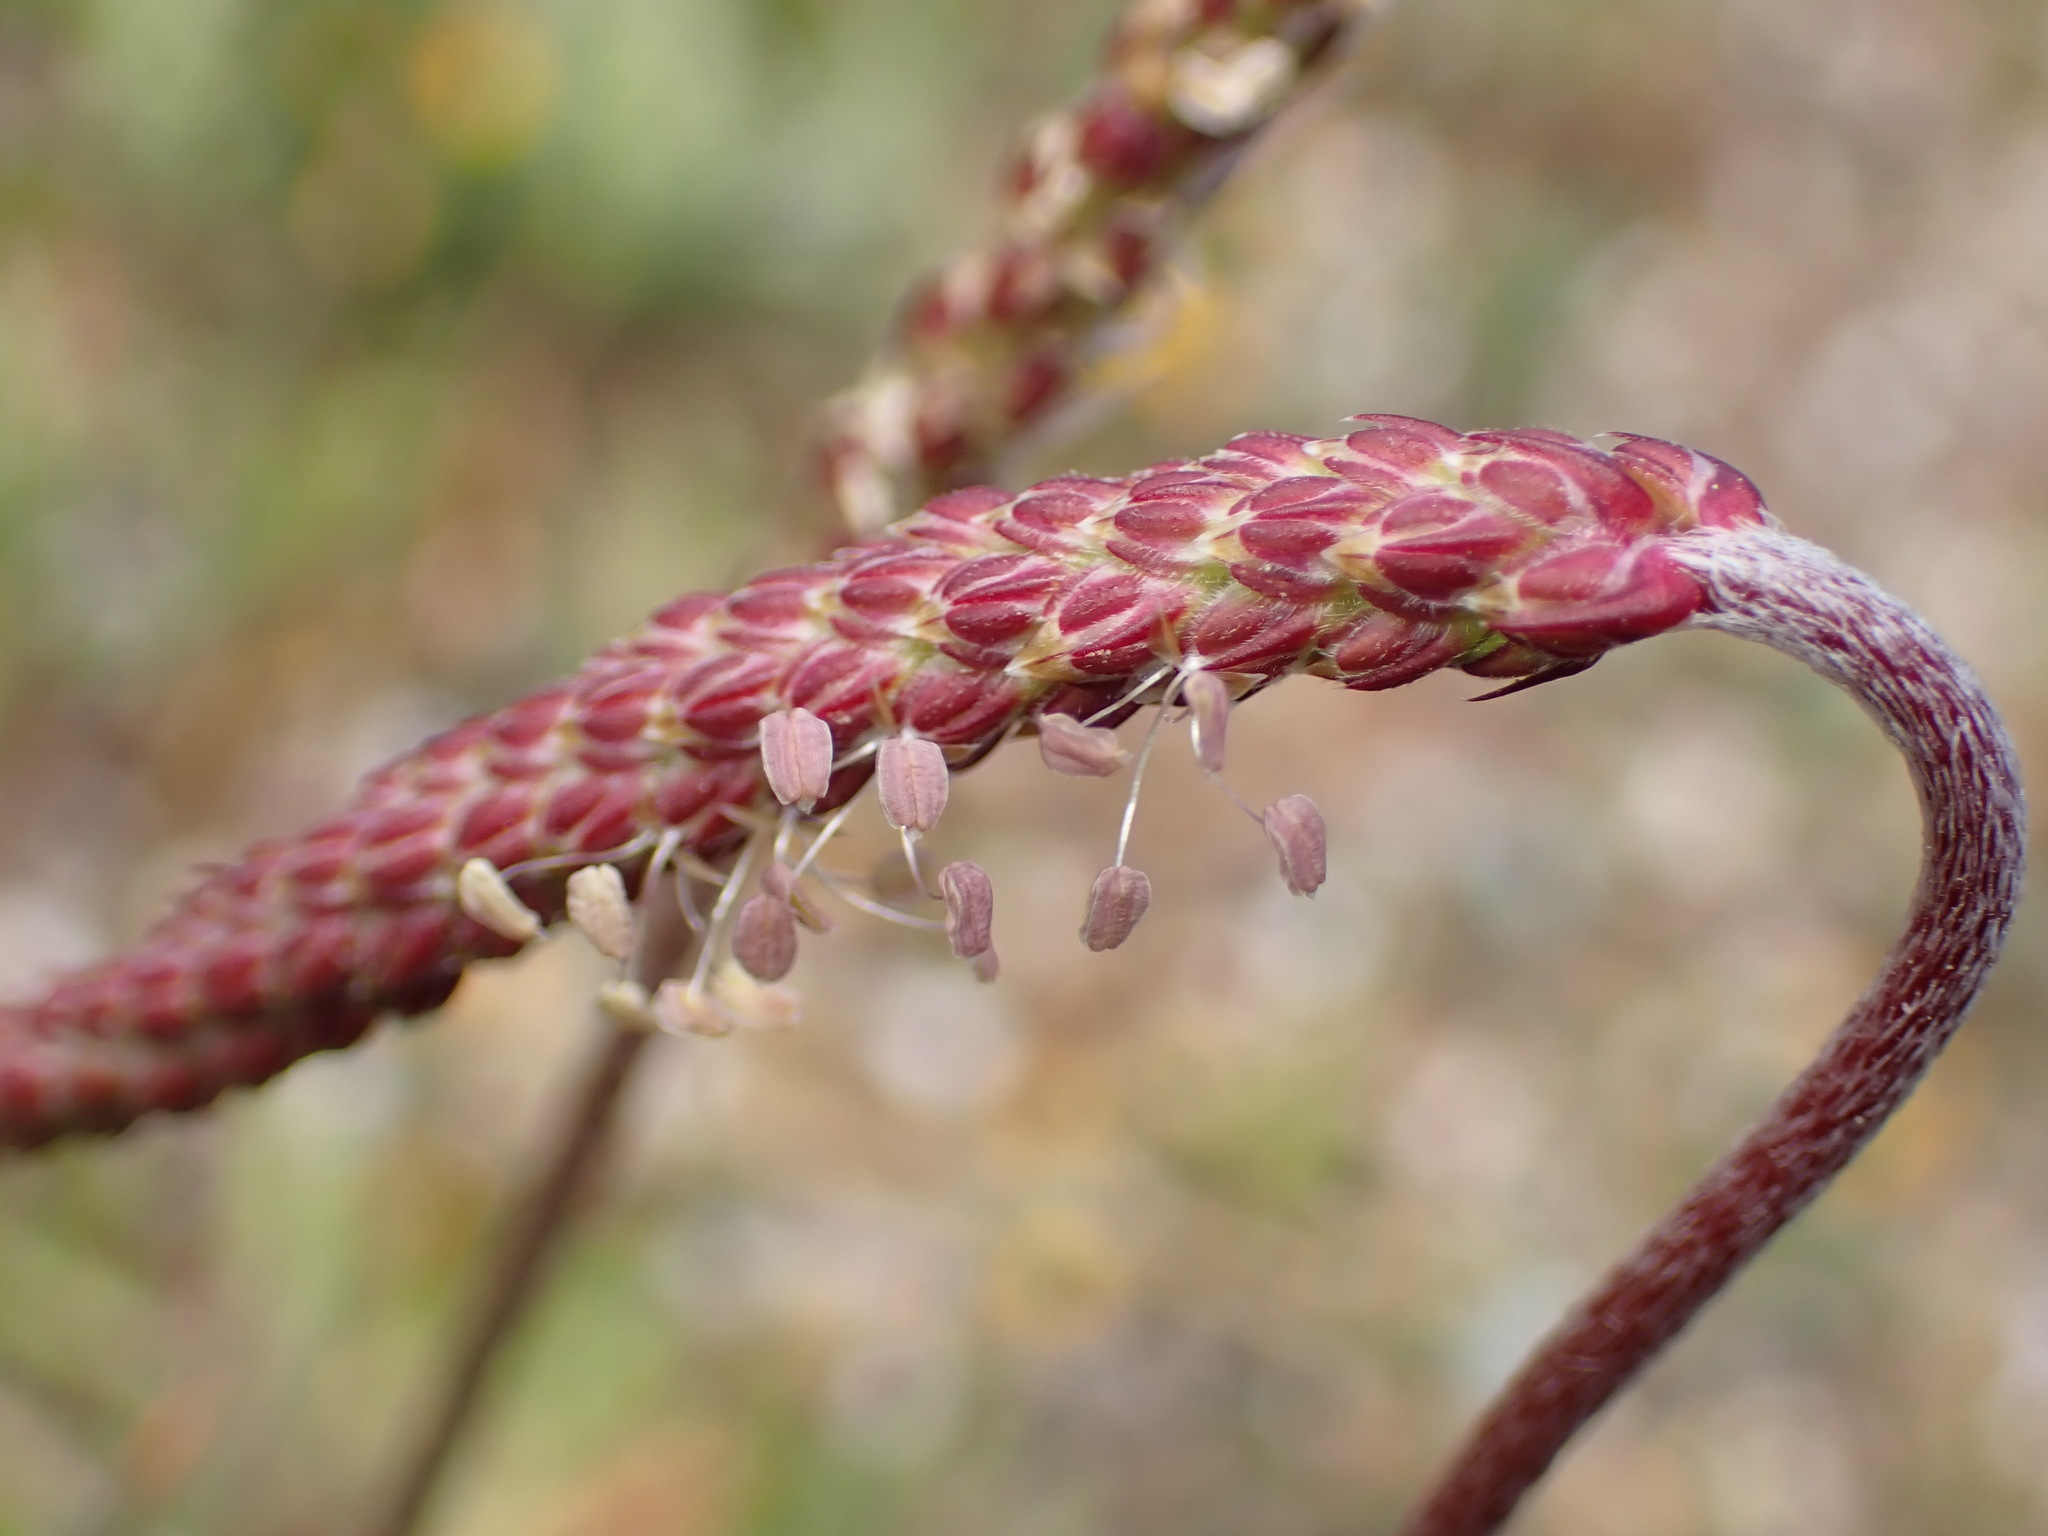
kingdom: Plantae
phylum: Tracheophyta
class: Magnoliopsida
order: Lamiales
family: Plantaginaceae
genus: Plantago
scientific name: Plantago coronopus
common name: Buck's-horn plantain
